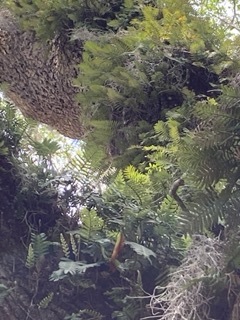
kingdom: Plantae
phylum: Tracheophyta
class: Polypodiopsida
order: Polypodiales
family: Polypodiaceae
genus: Pleopeltis
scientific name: Pleopeltis michauxiana
